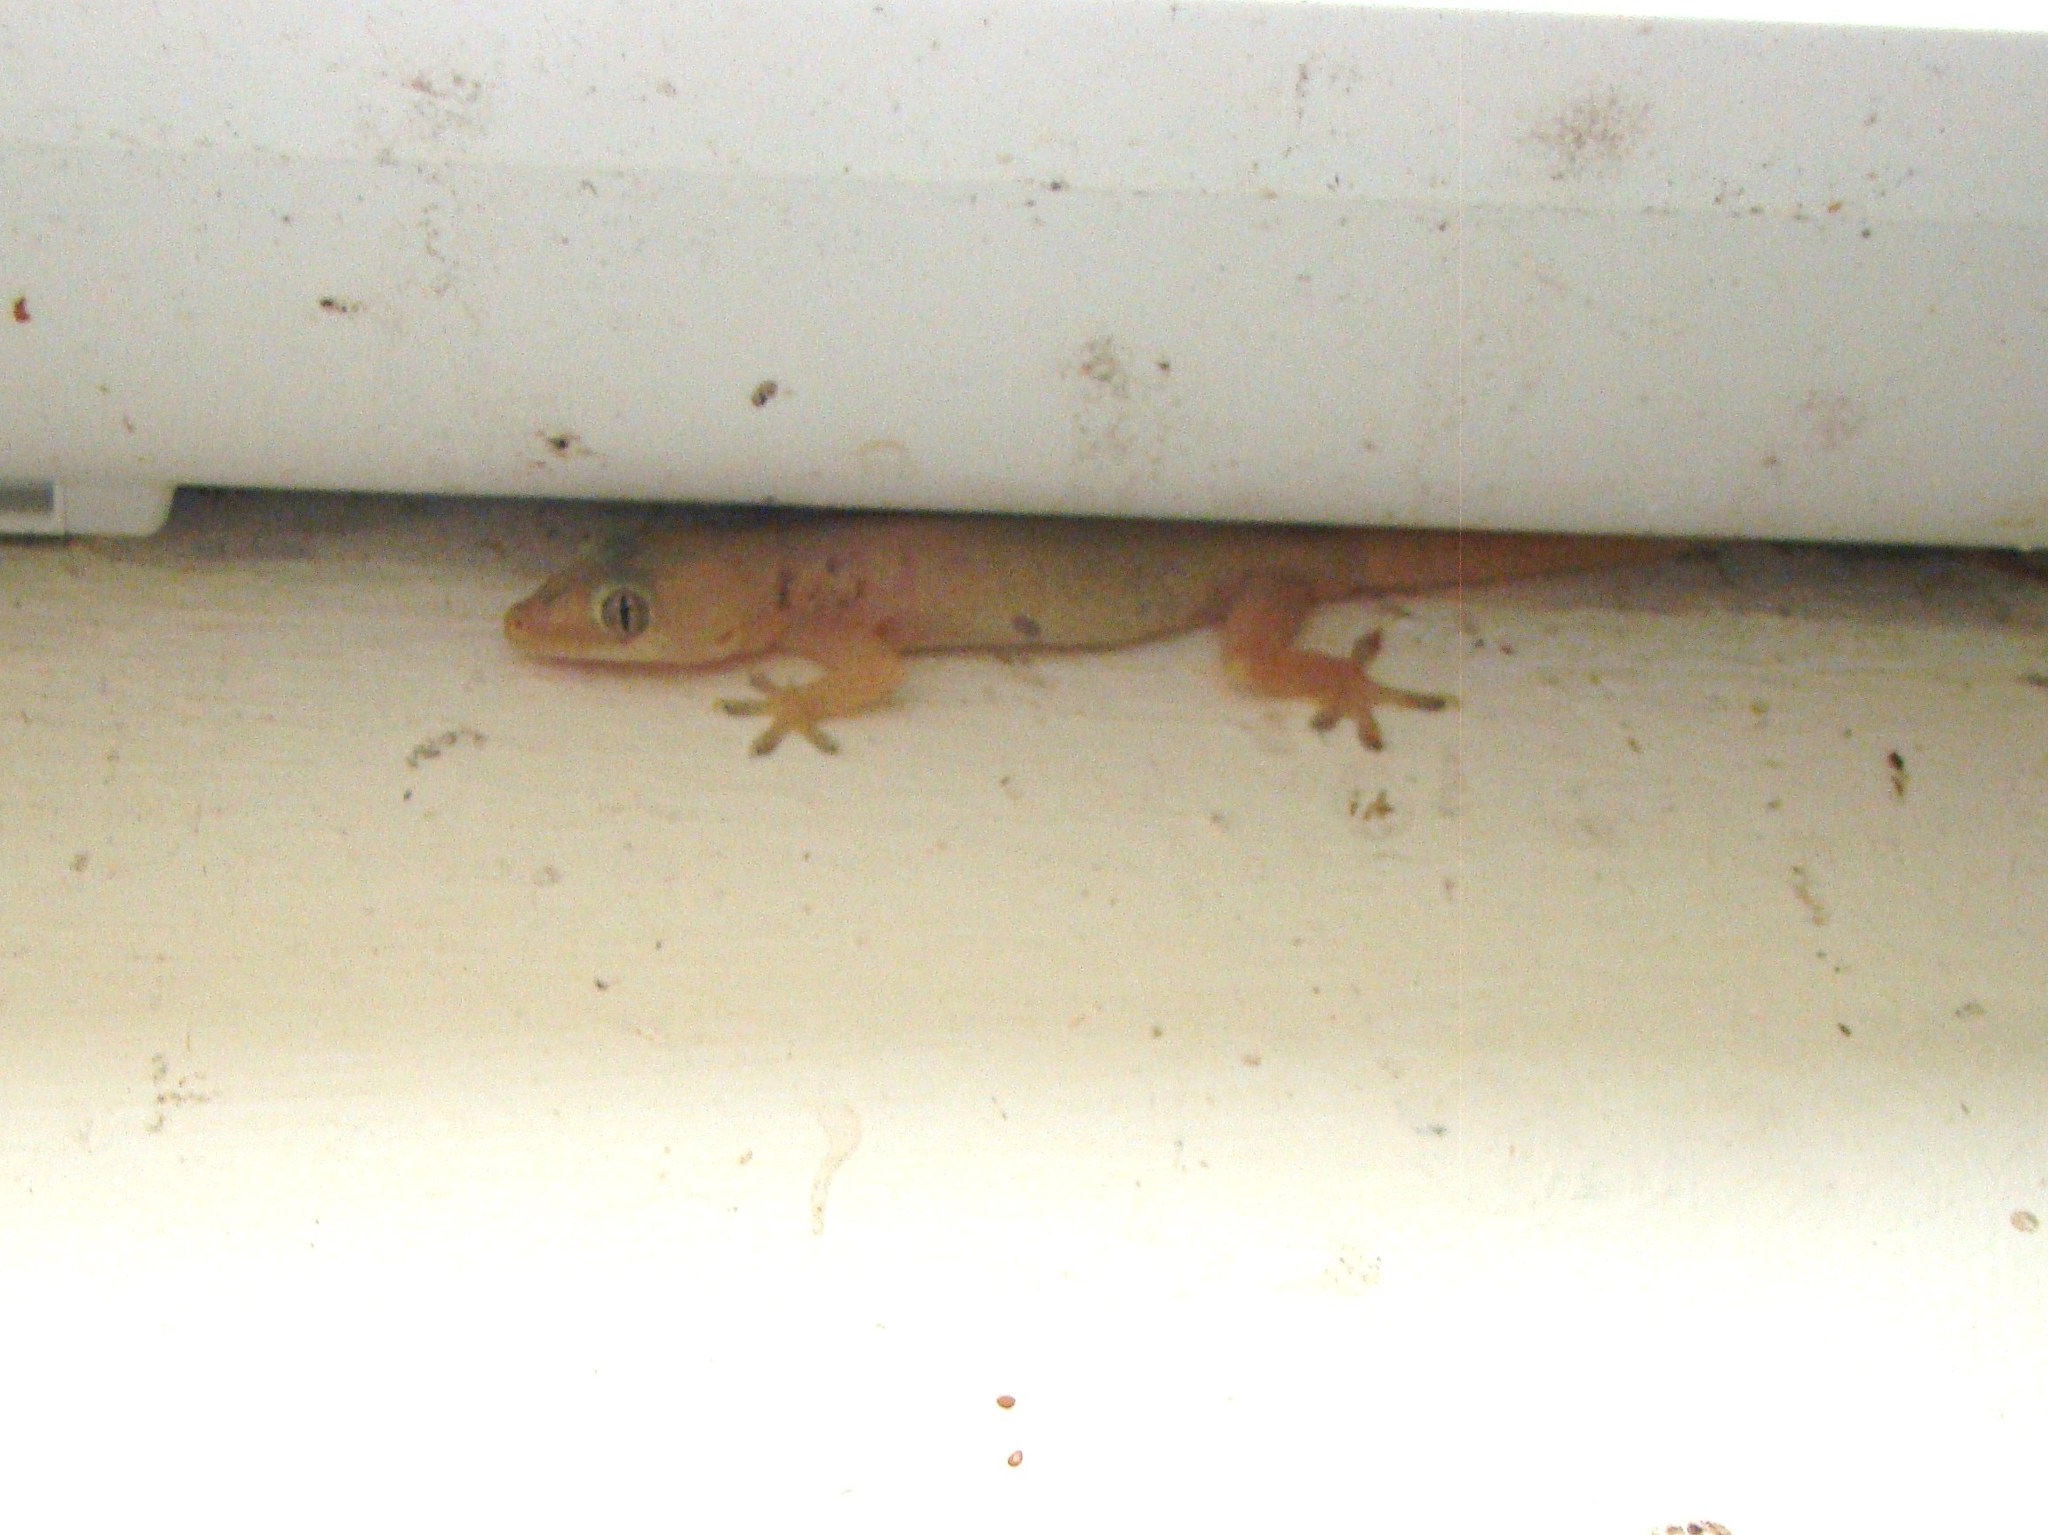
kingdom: Animalia
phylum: Chordata
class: Squamata
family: Gekkonidae
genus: Hemidactylus
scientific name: Hemidactylus frenatus
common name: Common house gecko
